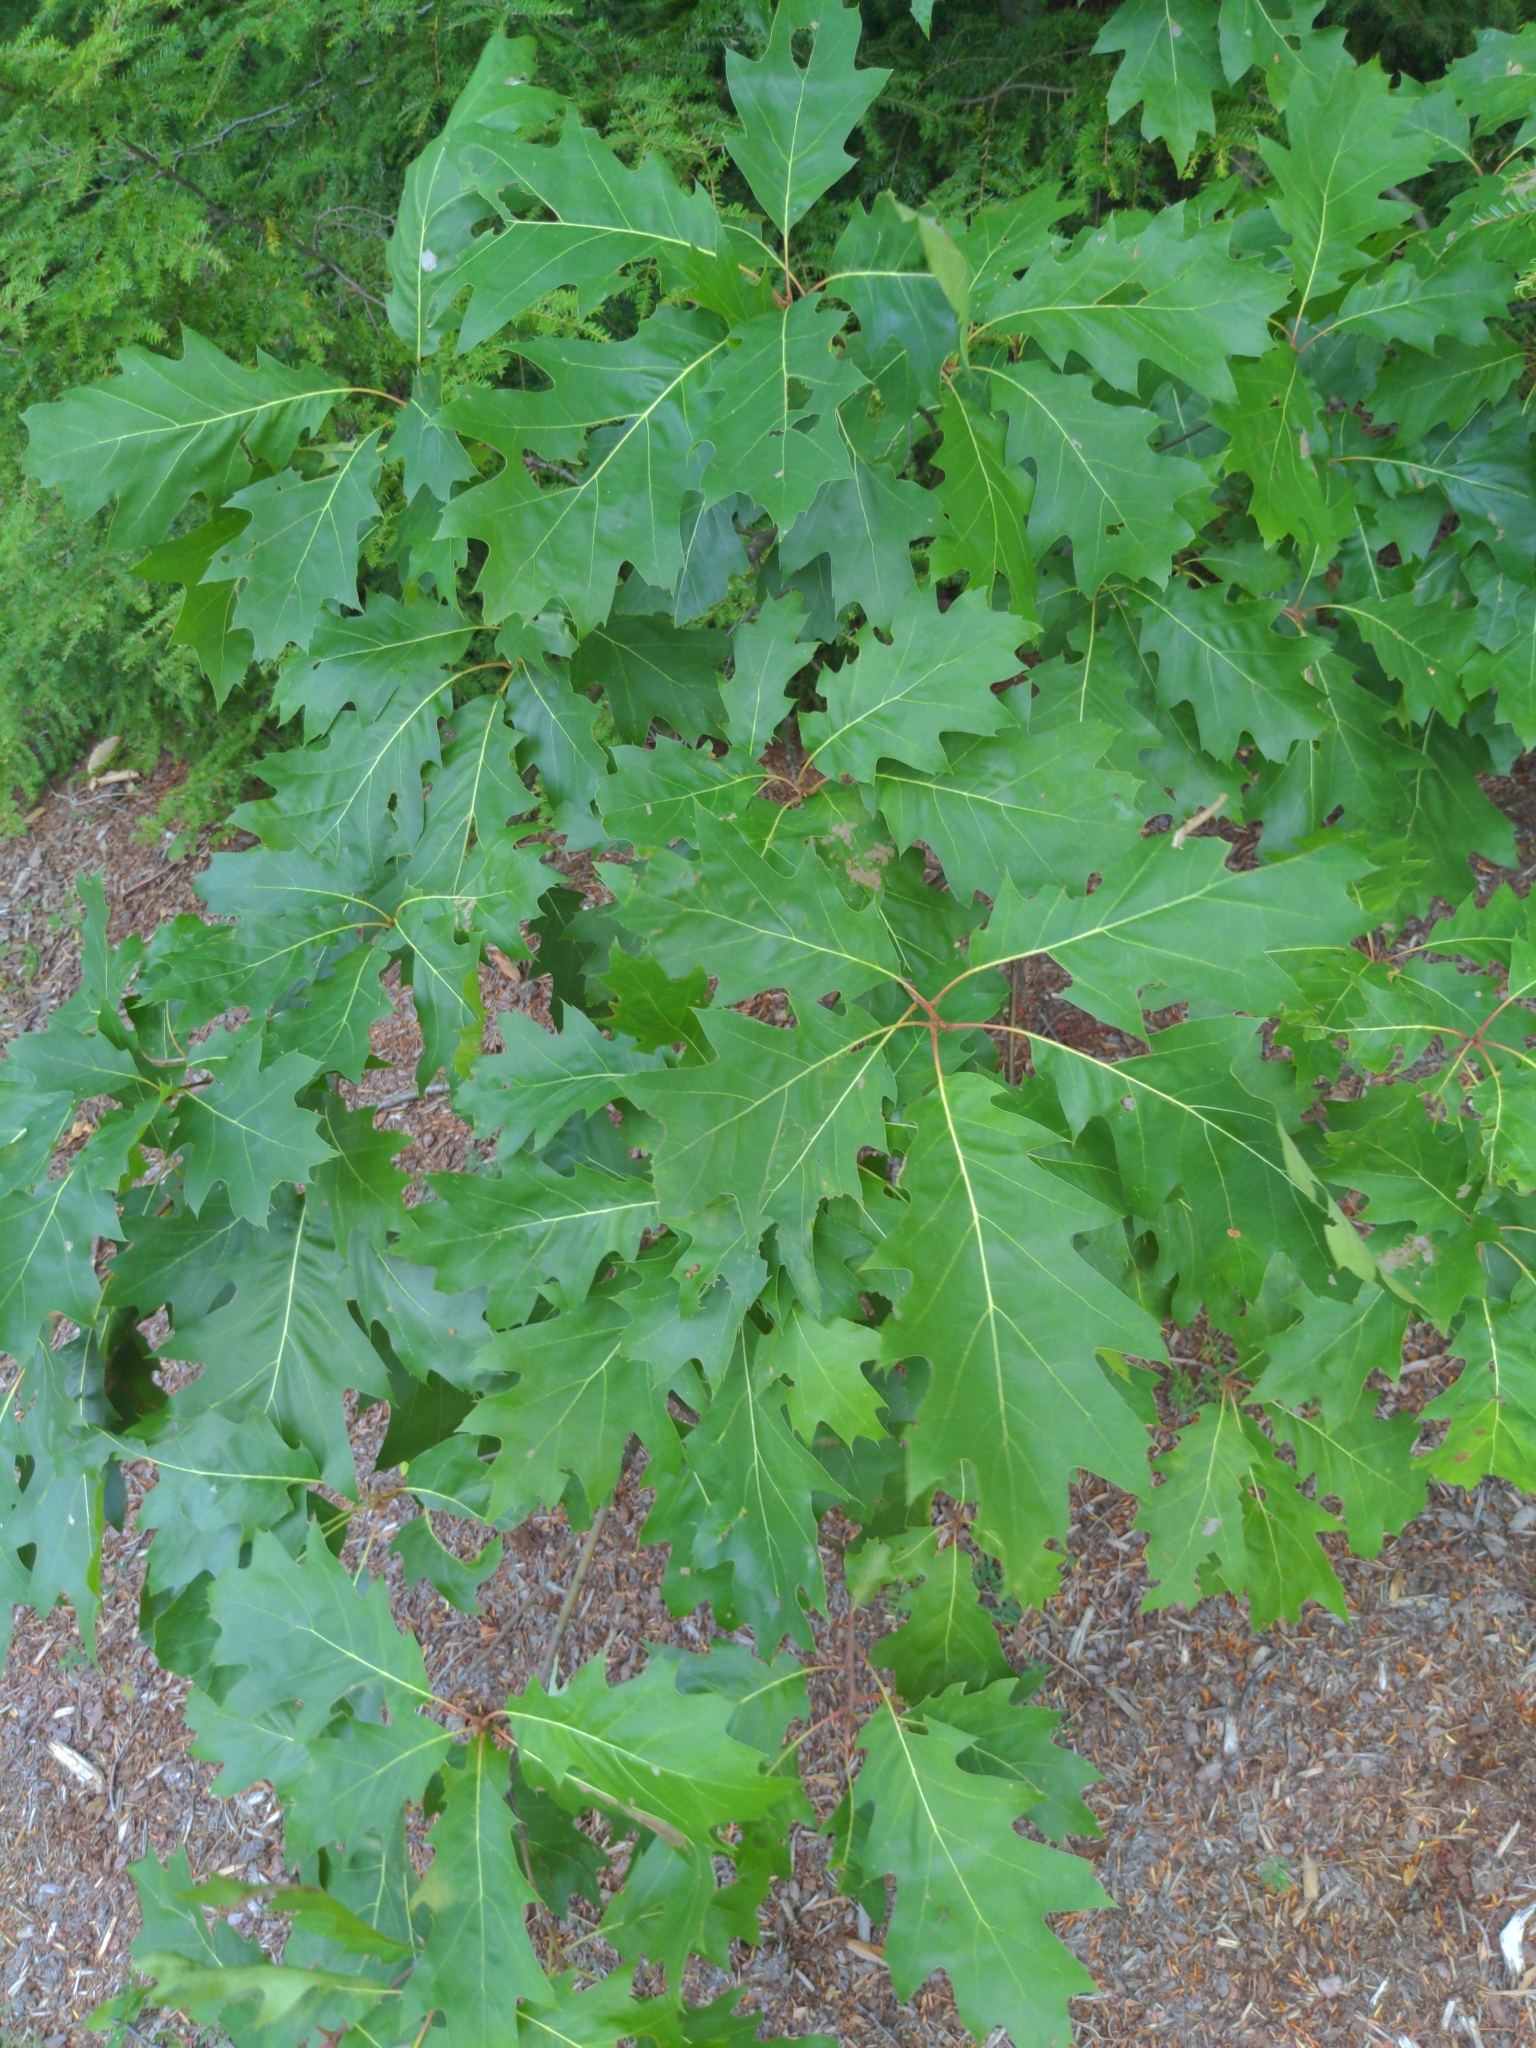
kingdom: Plantae
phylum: Tracheophyta
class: Magnoliopsida
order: Fagales
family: Fagaceae
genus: Quercus
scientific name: Quercus rubra
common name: Red oak
